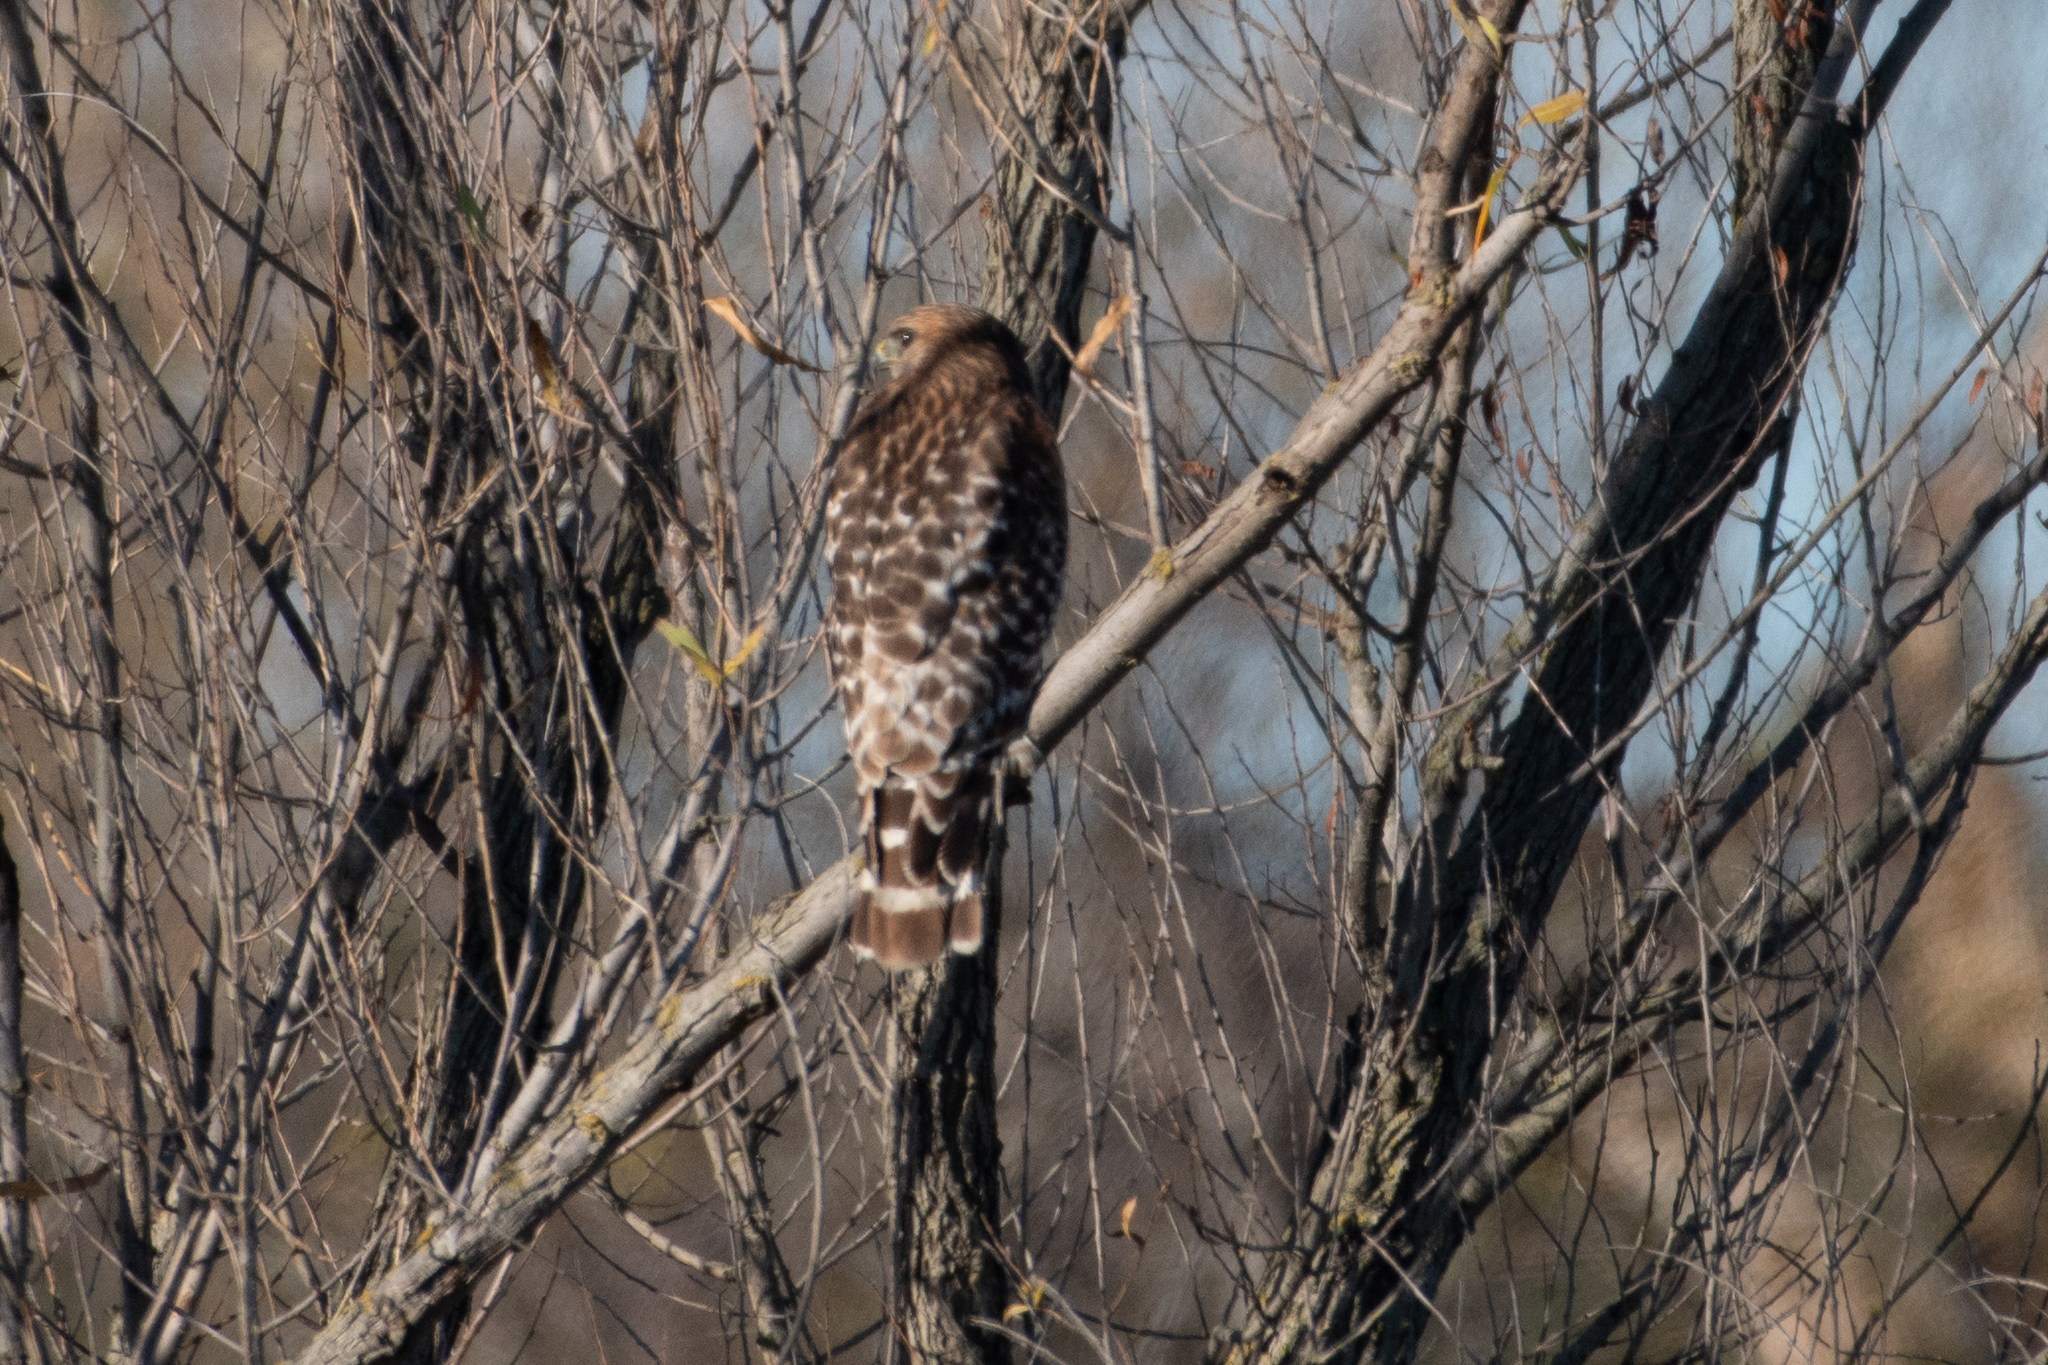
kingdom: Animalia
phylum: Chordata
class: Aves
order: Accipitriformes
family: Accipitridae
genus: Buteo
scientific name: Buteo lineatus
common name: Red-shouldered hawk
